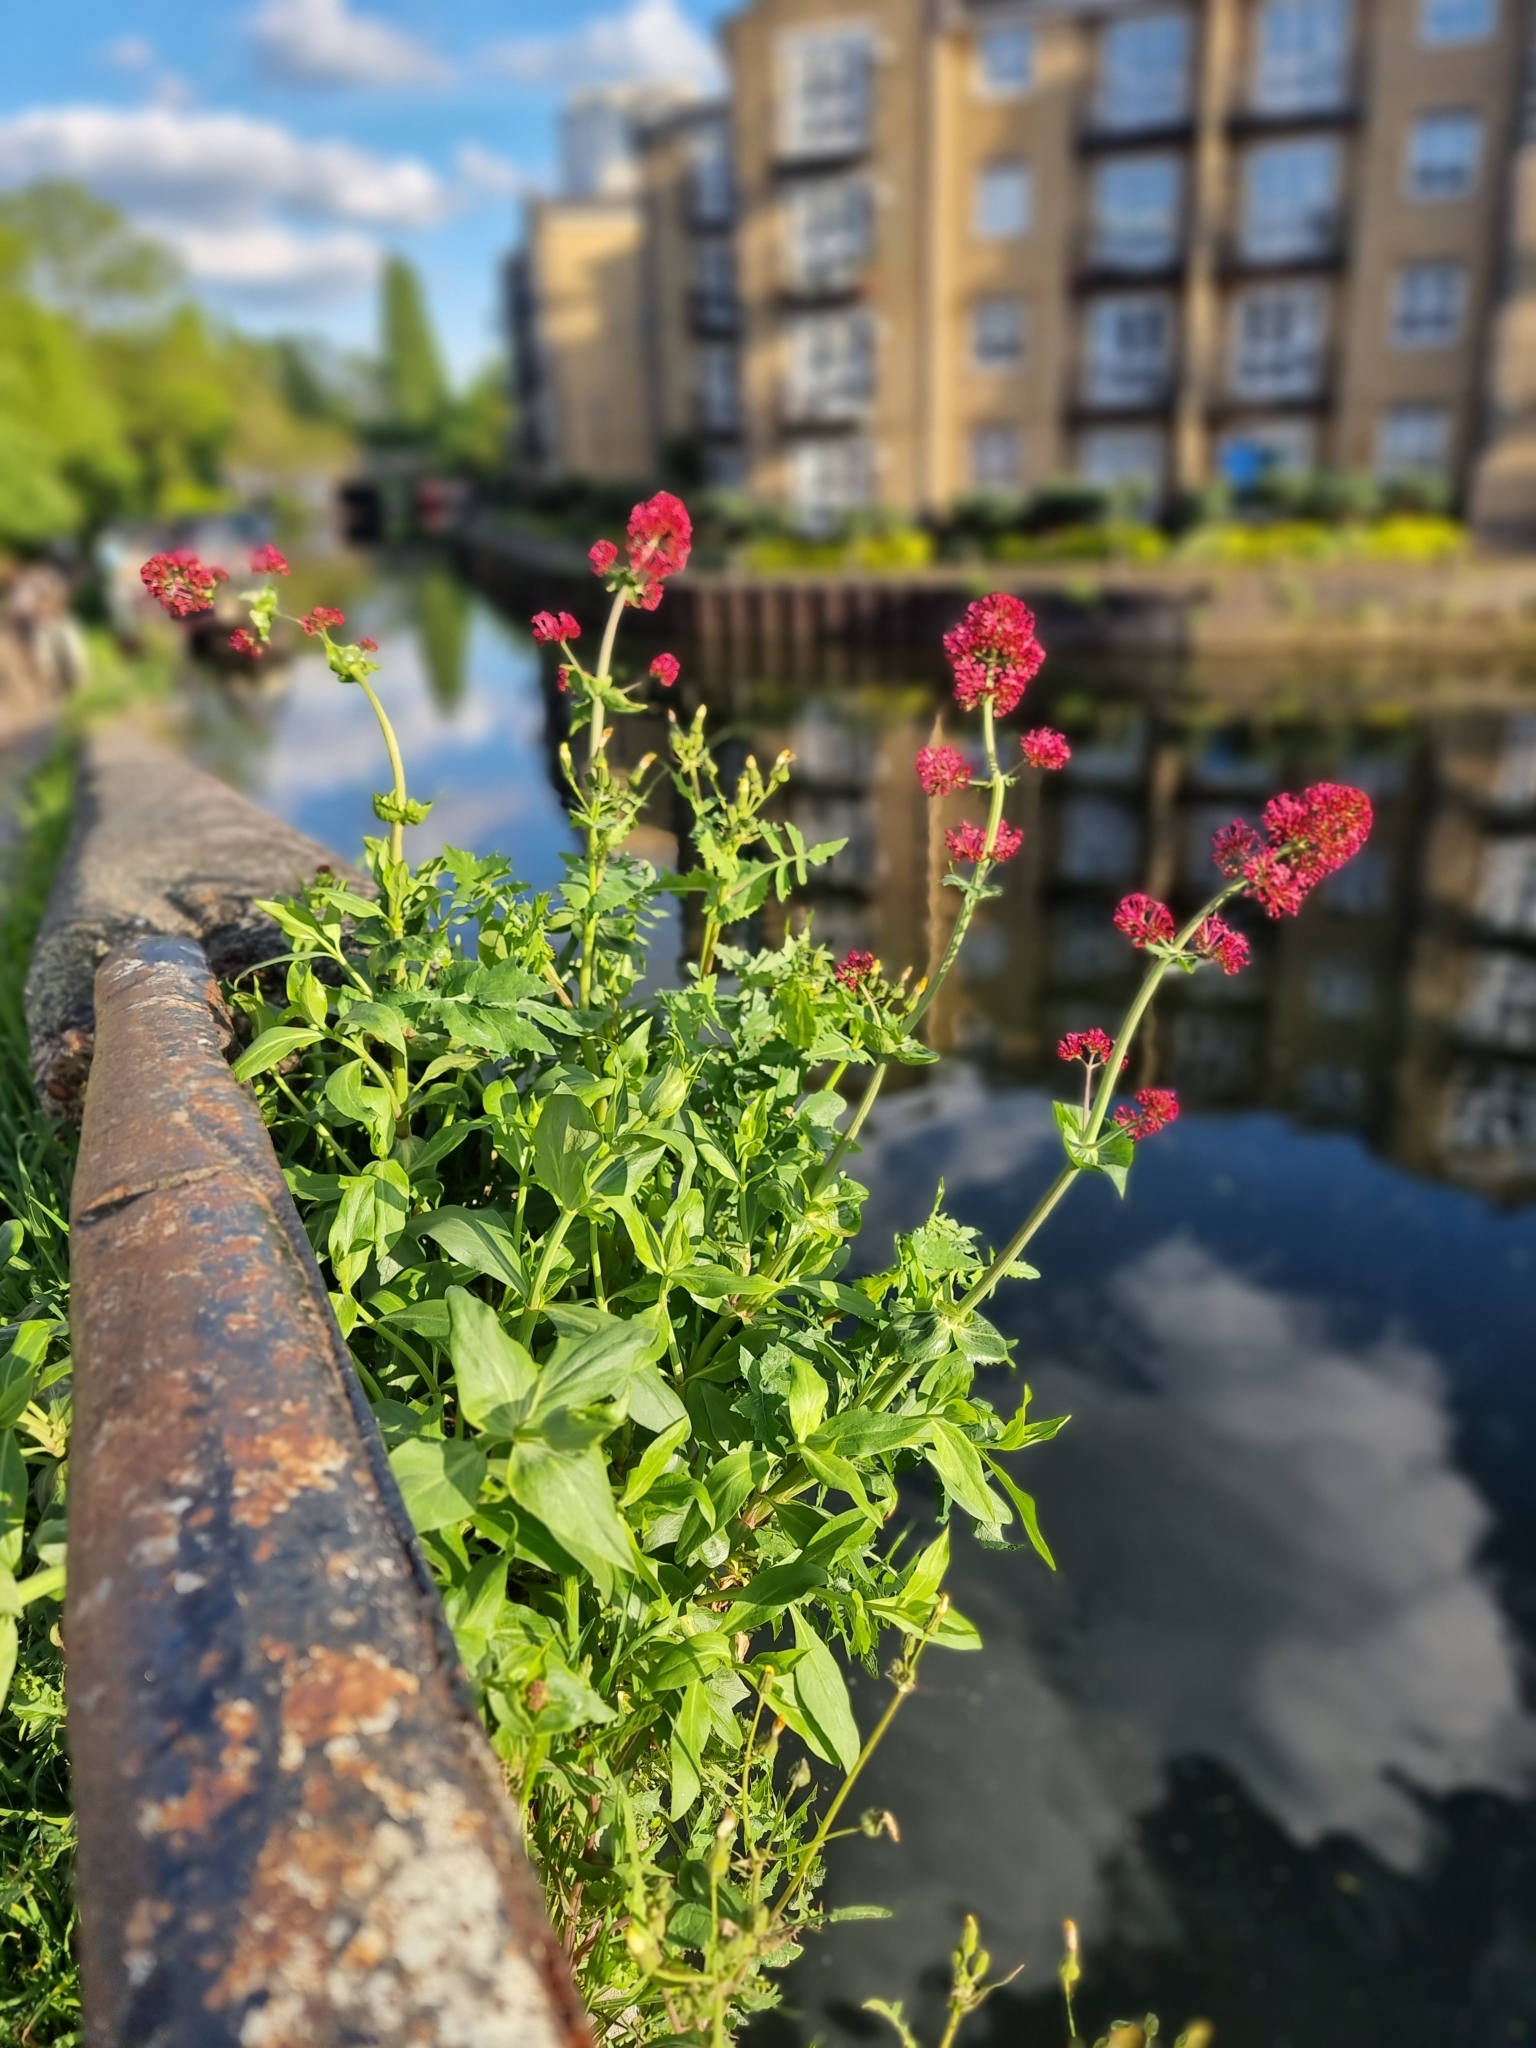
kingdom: Plantae
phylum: Tracheophyta
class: Magnoliopsida
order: Dipsacales
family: Caprifoliaceae
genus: Centranthus
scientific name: Centranthus ruber
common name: Red valerian
